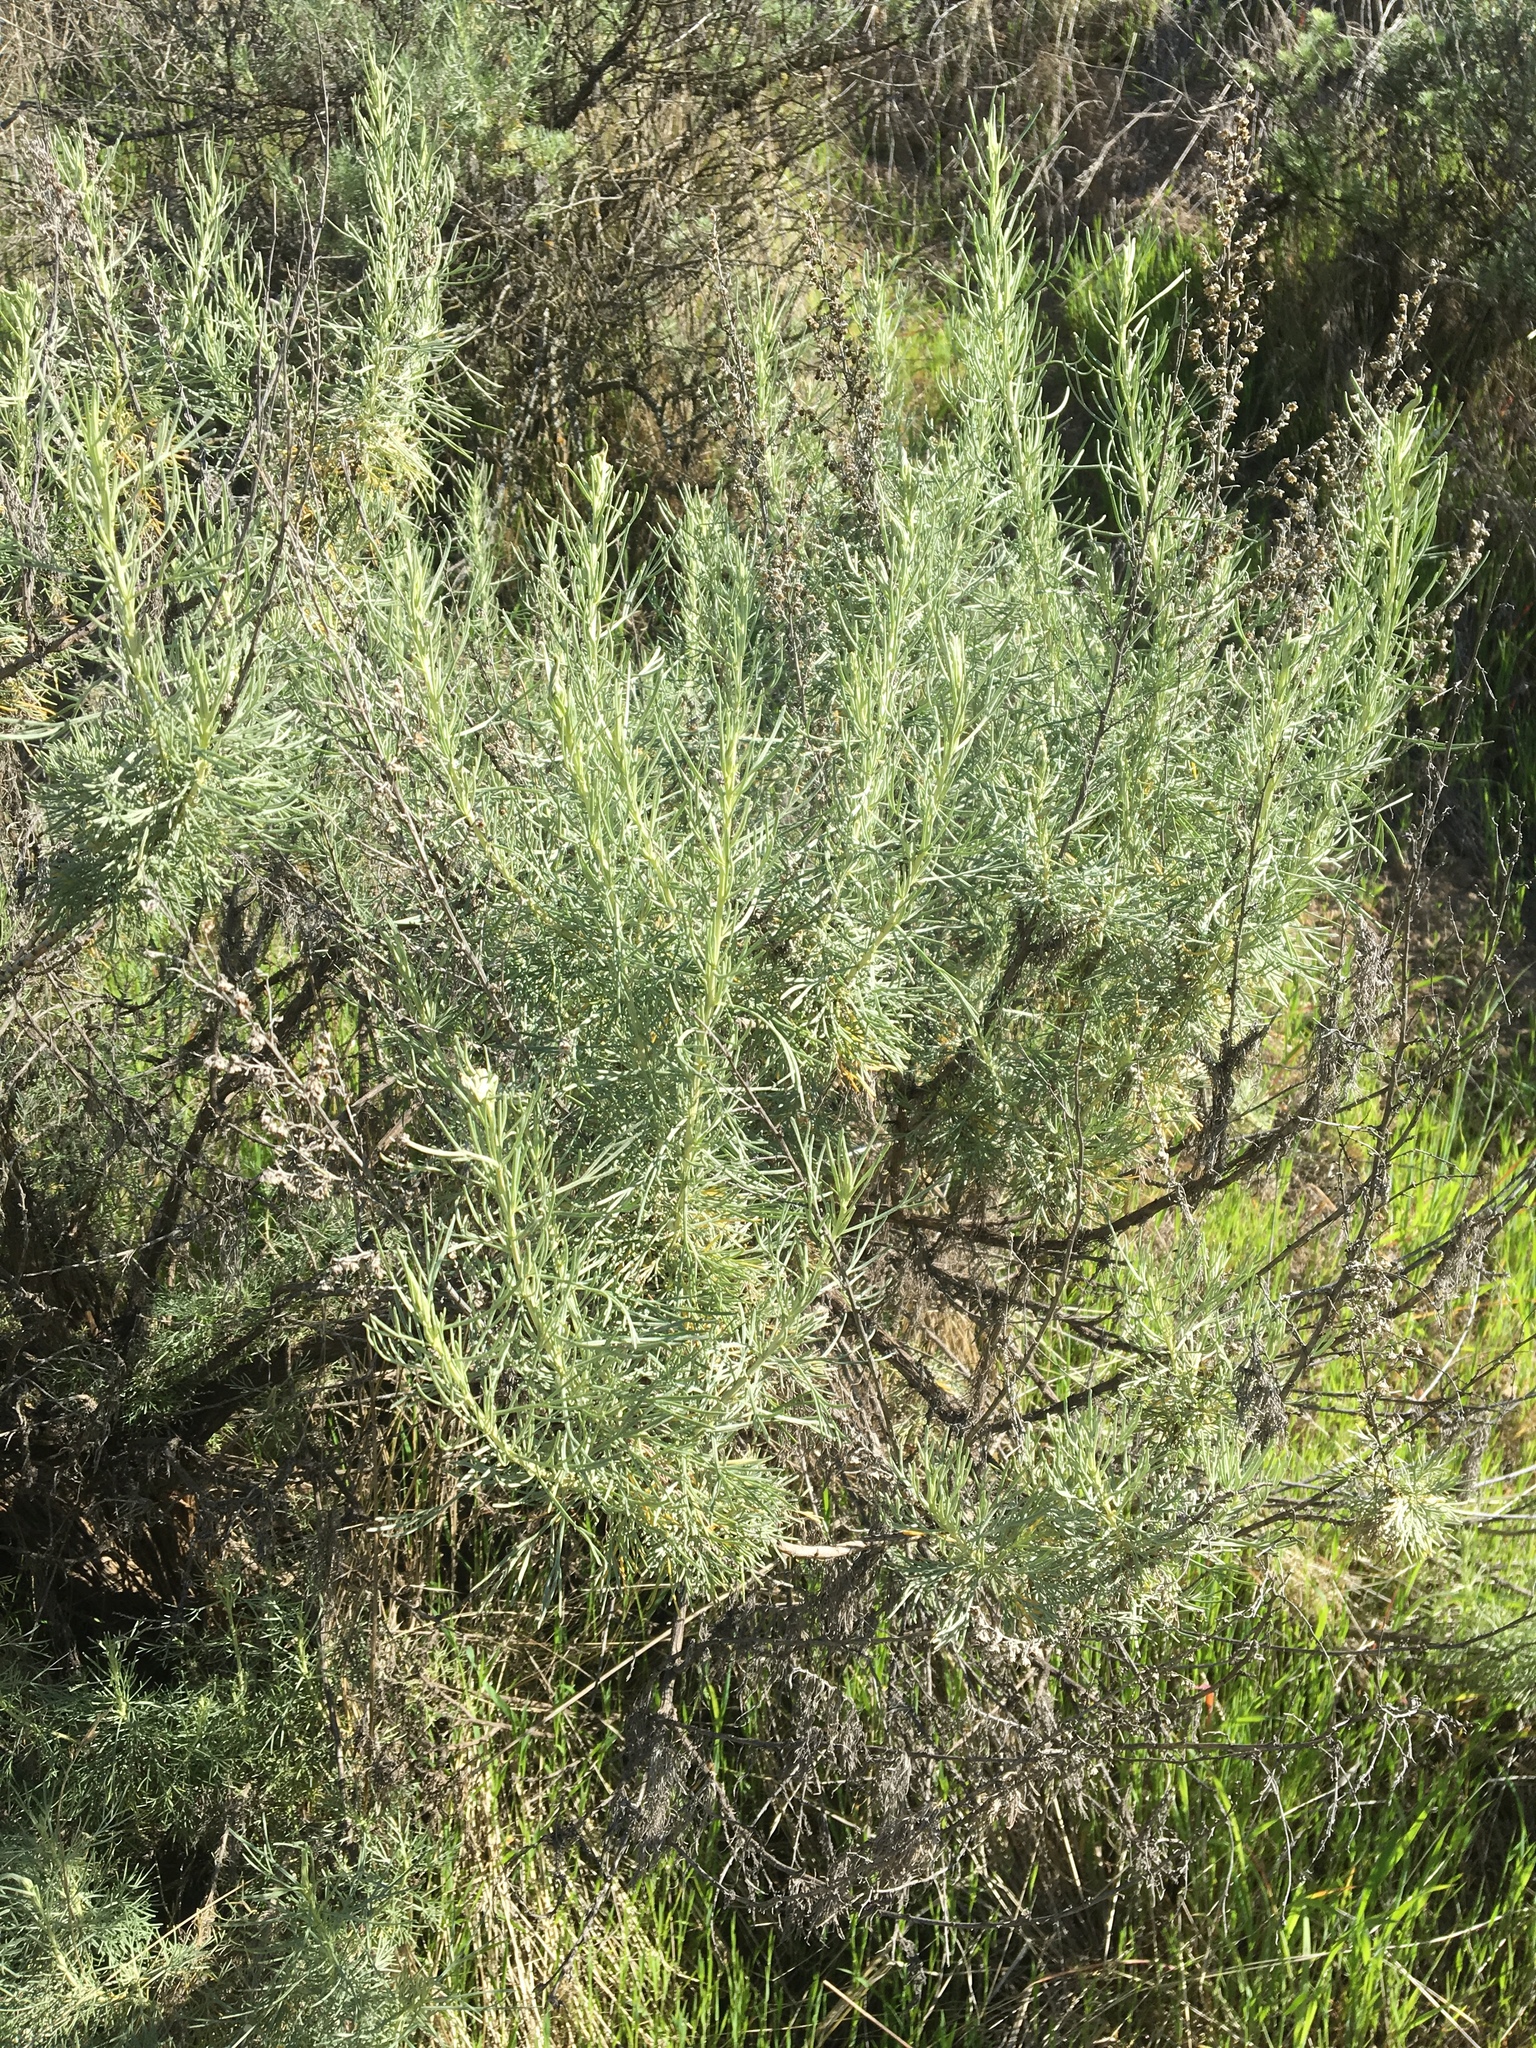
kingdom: Plantae
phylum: Tracheophyta
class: Magnoliopsida
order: Asterales
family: Asteraceae
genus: Artemisia
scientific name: Artemisia californica
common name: California sagebrush
